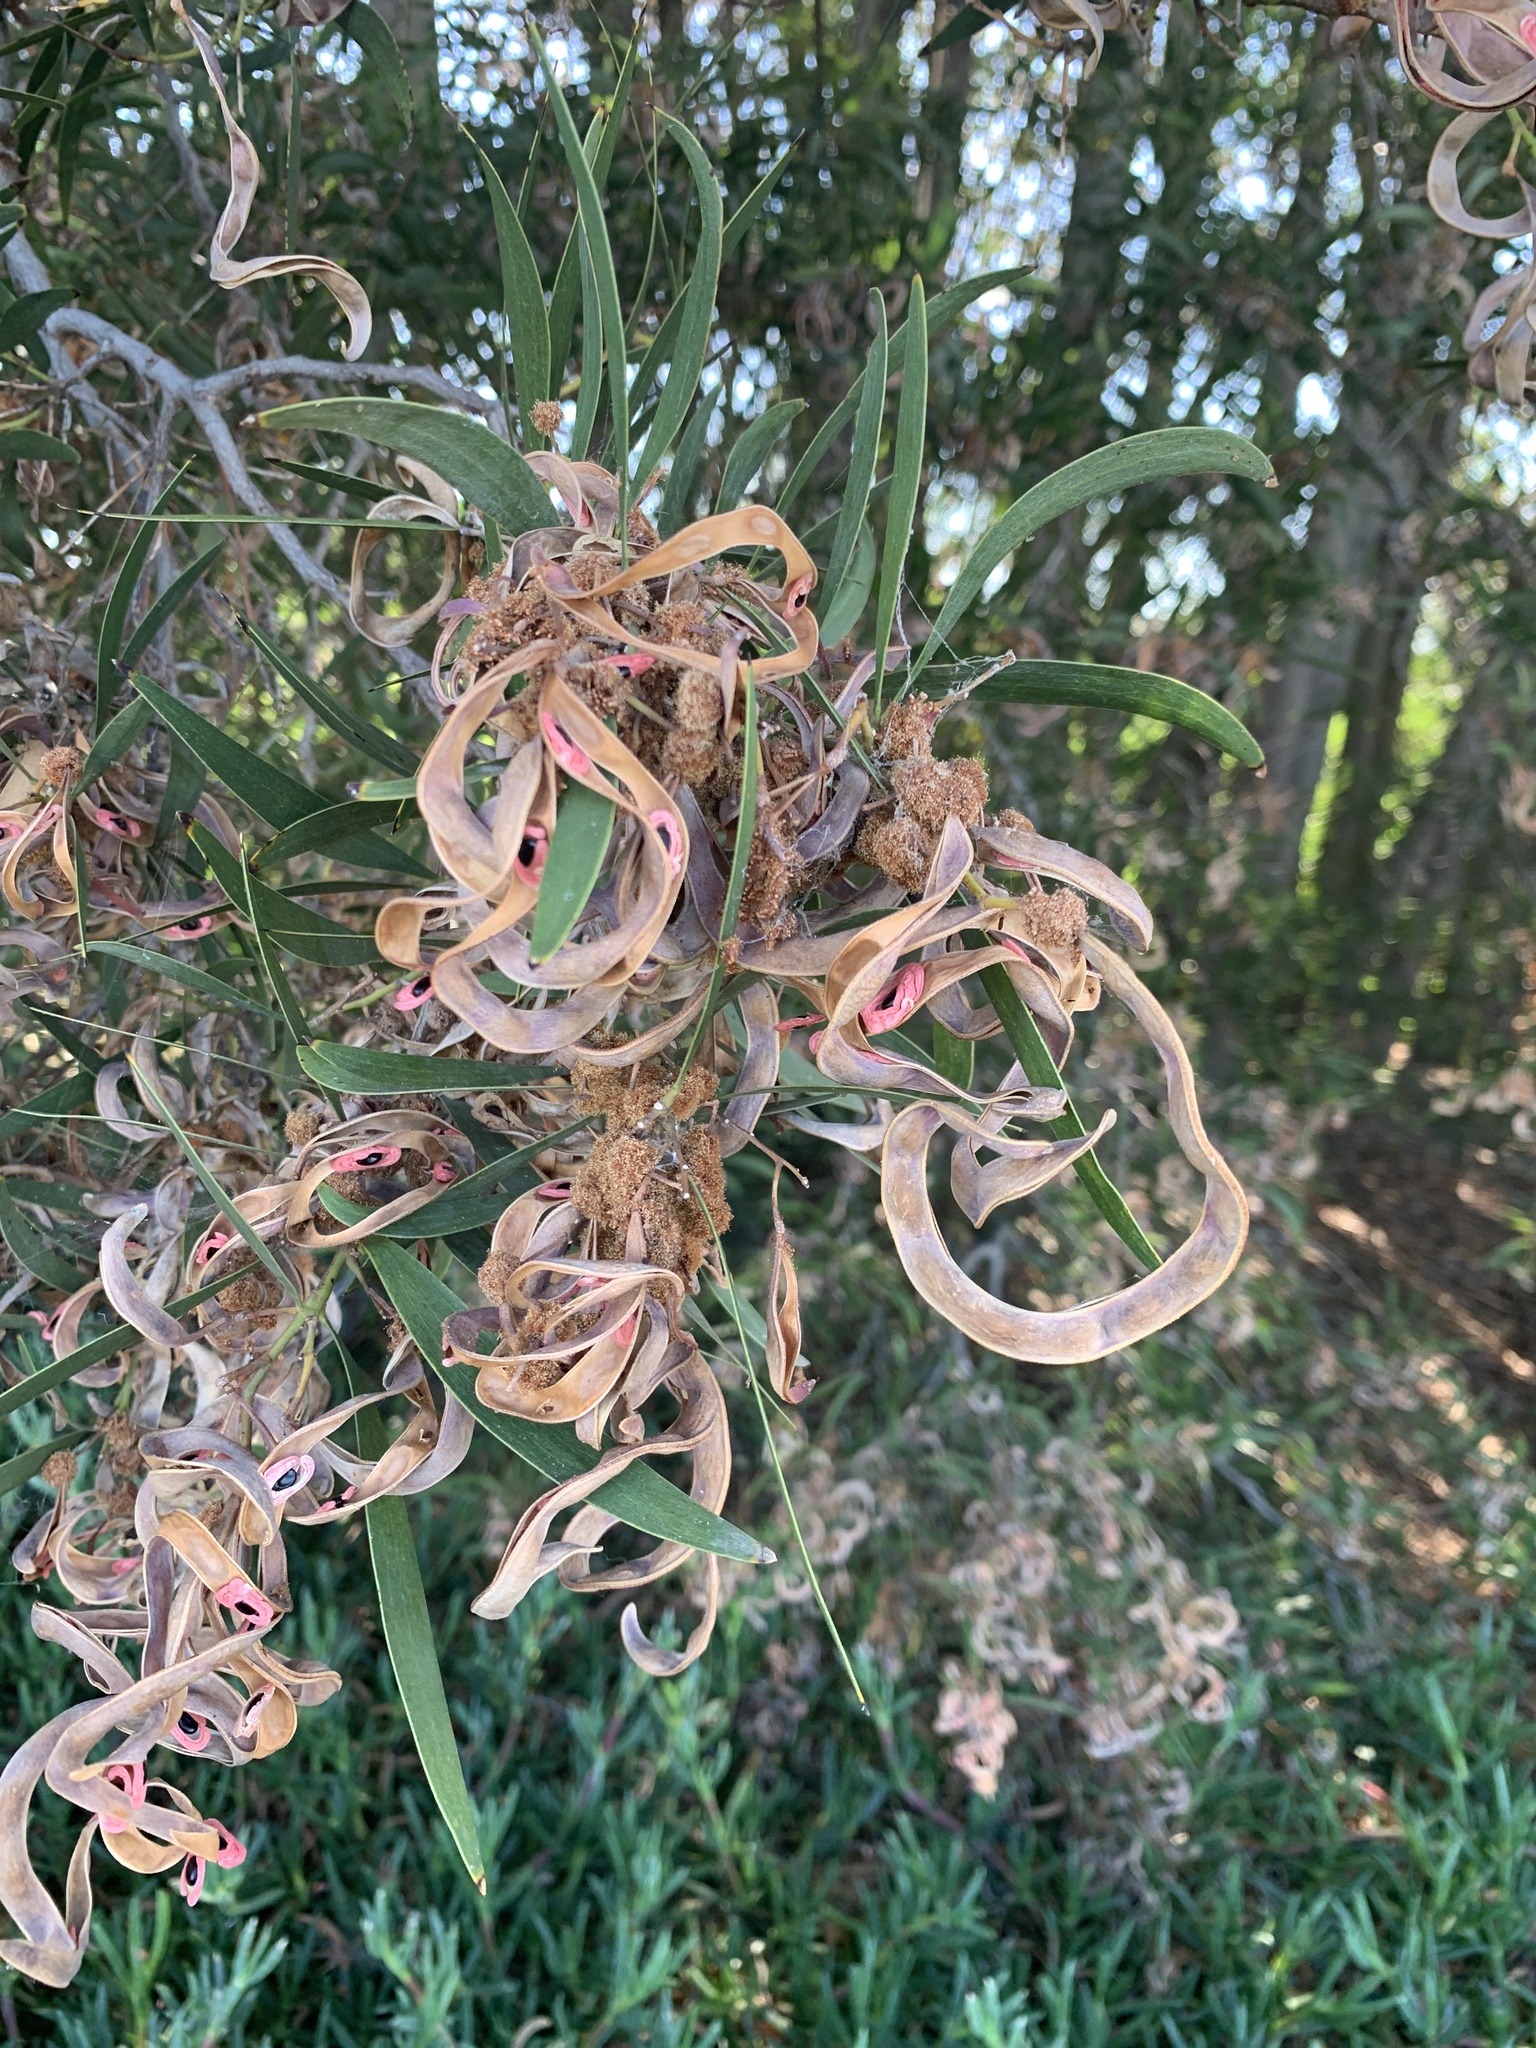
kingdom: Plantae
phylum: Tracheophyta
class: Magnoliopsida
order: Fabales
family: Fabaceae
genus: Acacia
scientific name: Acacia melanoxylon
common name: Blackwood
